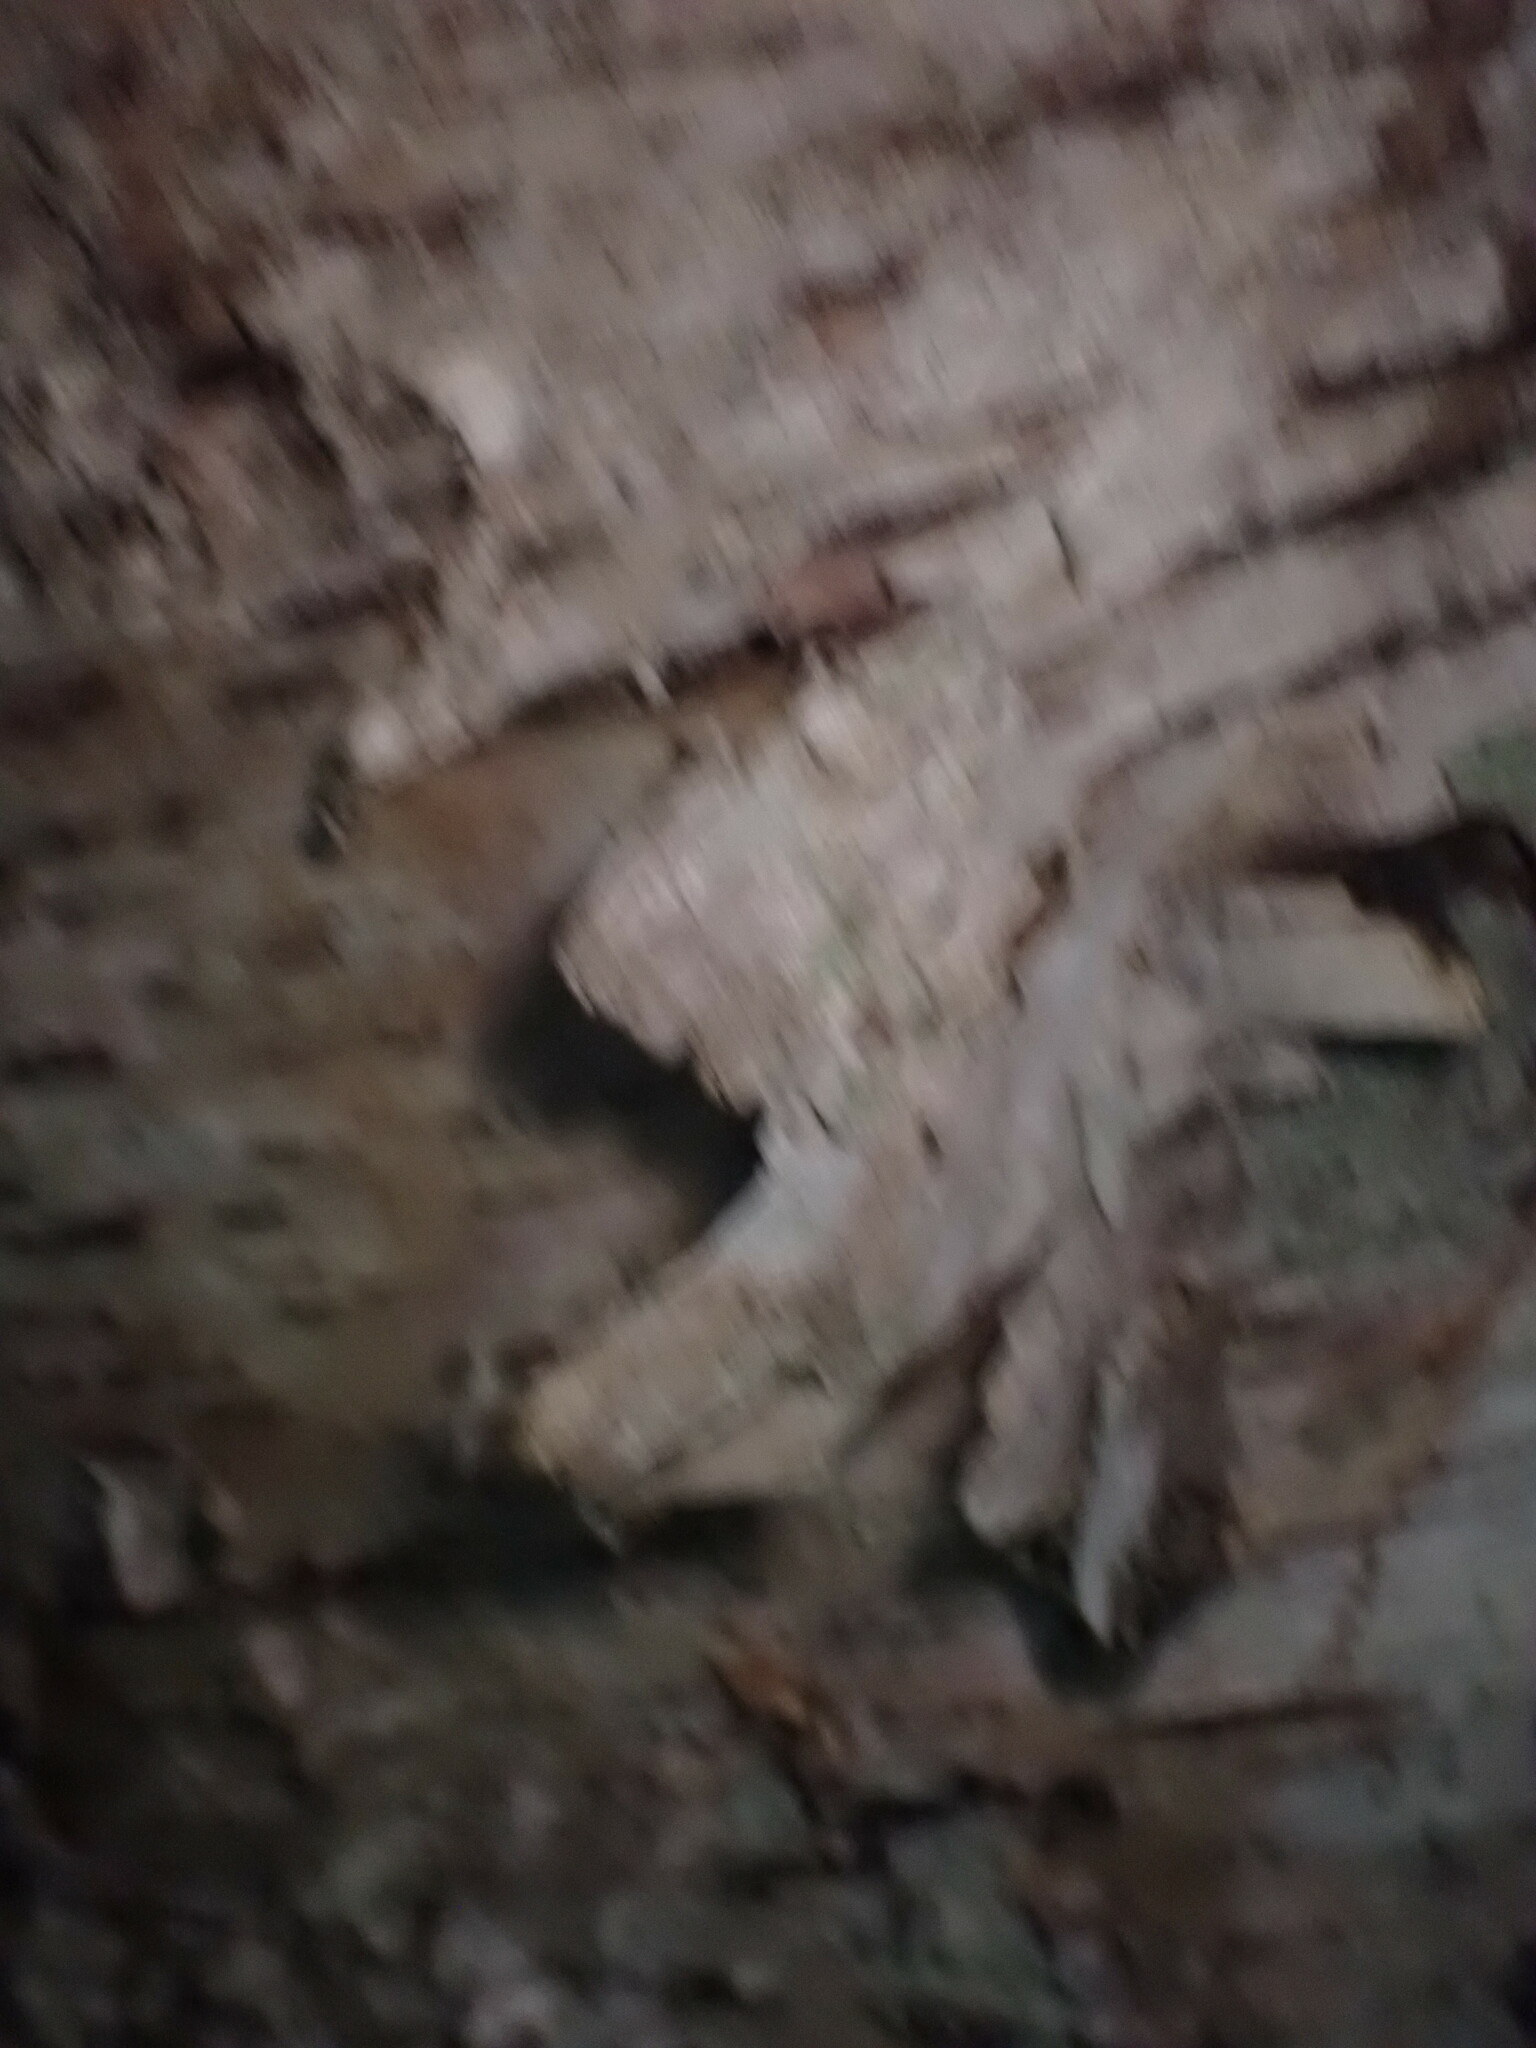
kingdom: Plantae
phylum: Tracheophyta
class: Magnoliopsida
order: Fagales
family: Betulaceae
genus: Betula
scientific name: Betula papyrifera
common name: Paper birch
